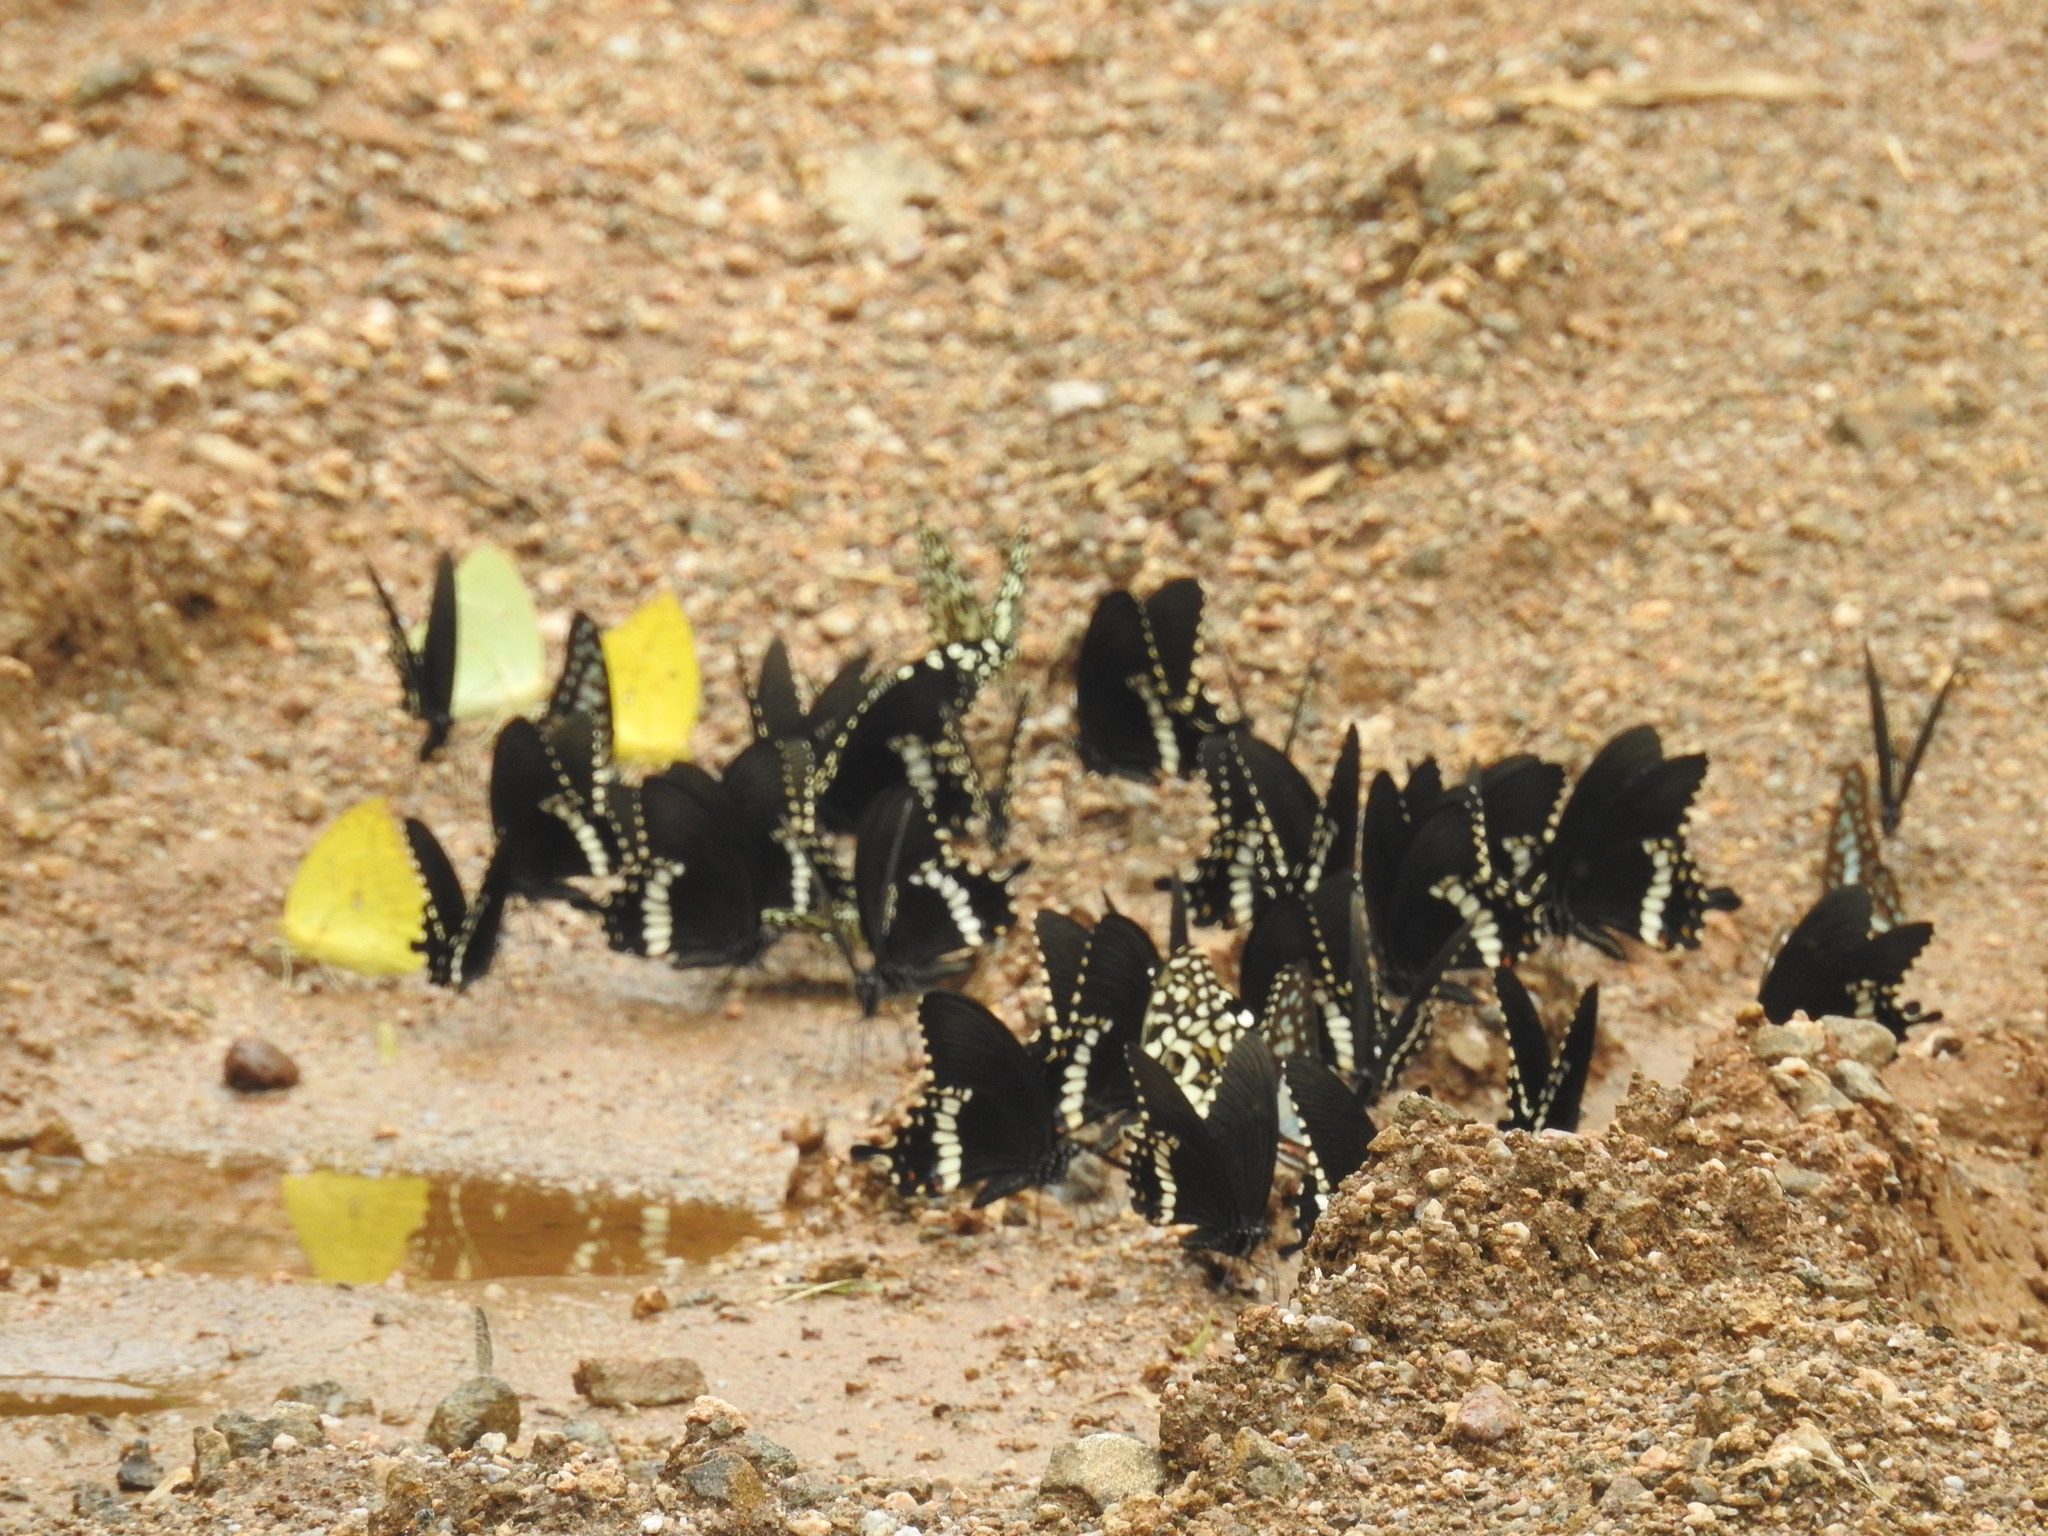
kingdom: Animalia
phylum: Arthropoda
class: Insecta
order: Lepidoptera
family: Papilionidae
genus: Papilio
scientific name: Papilio polytes
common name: Common mormon
